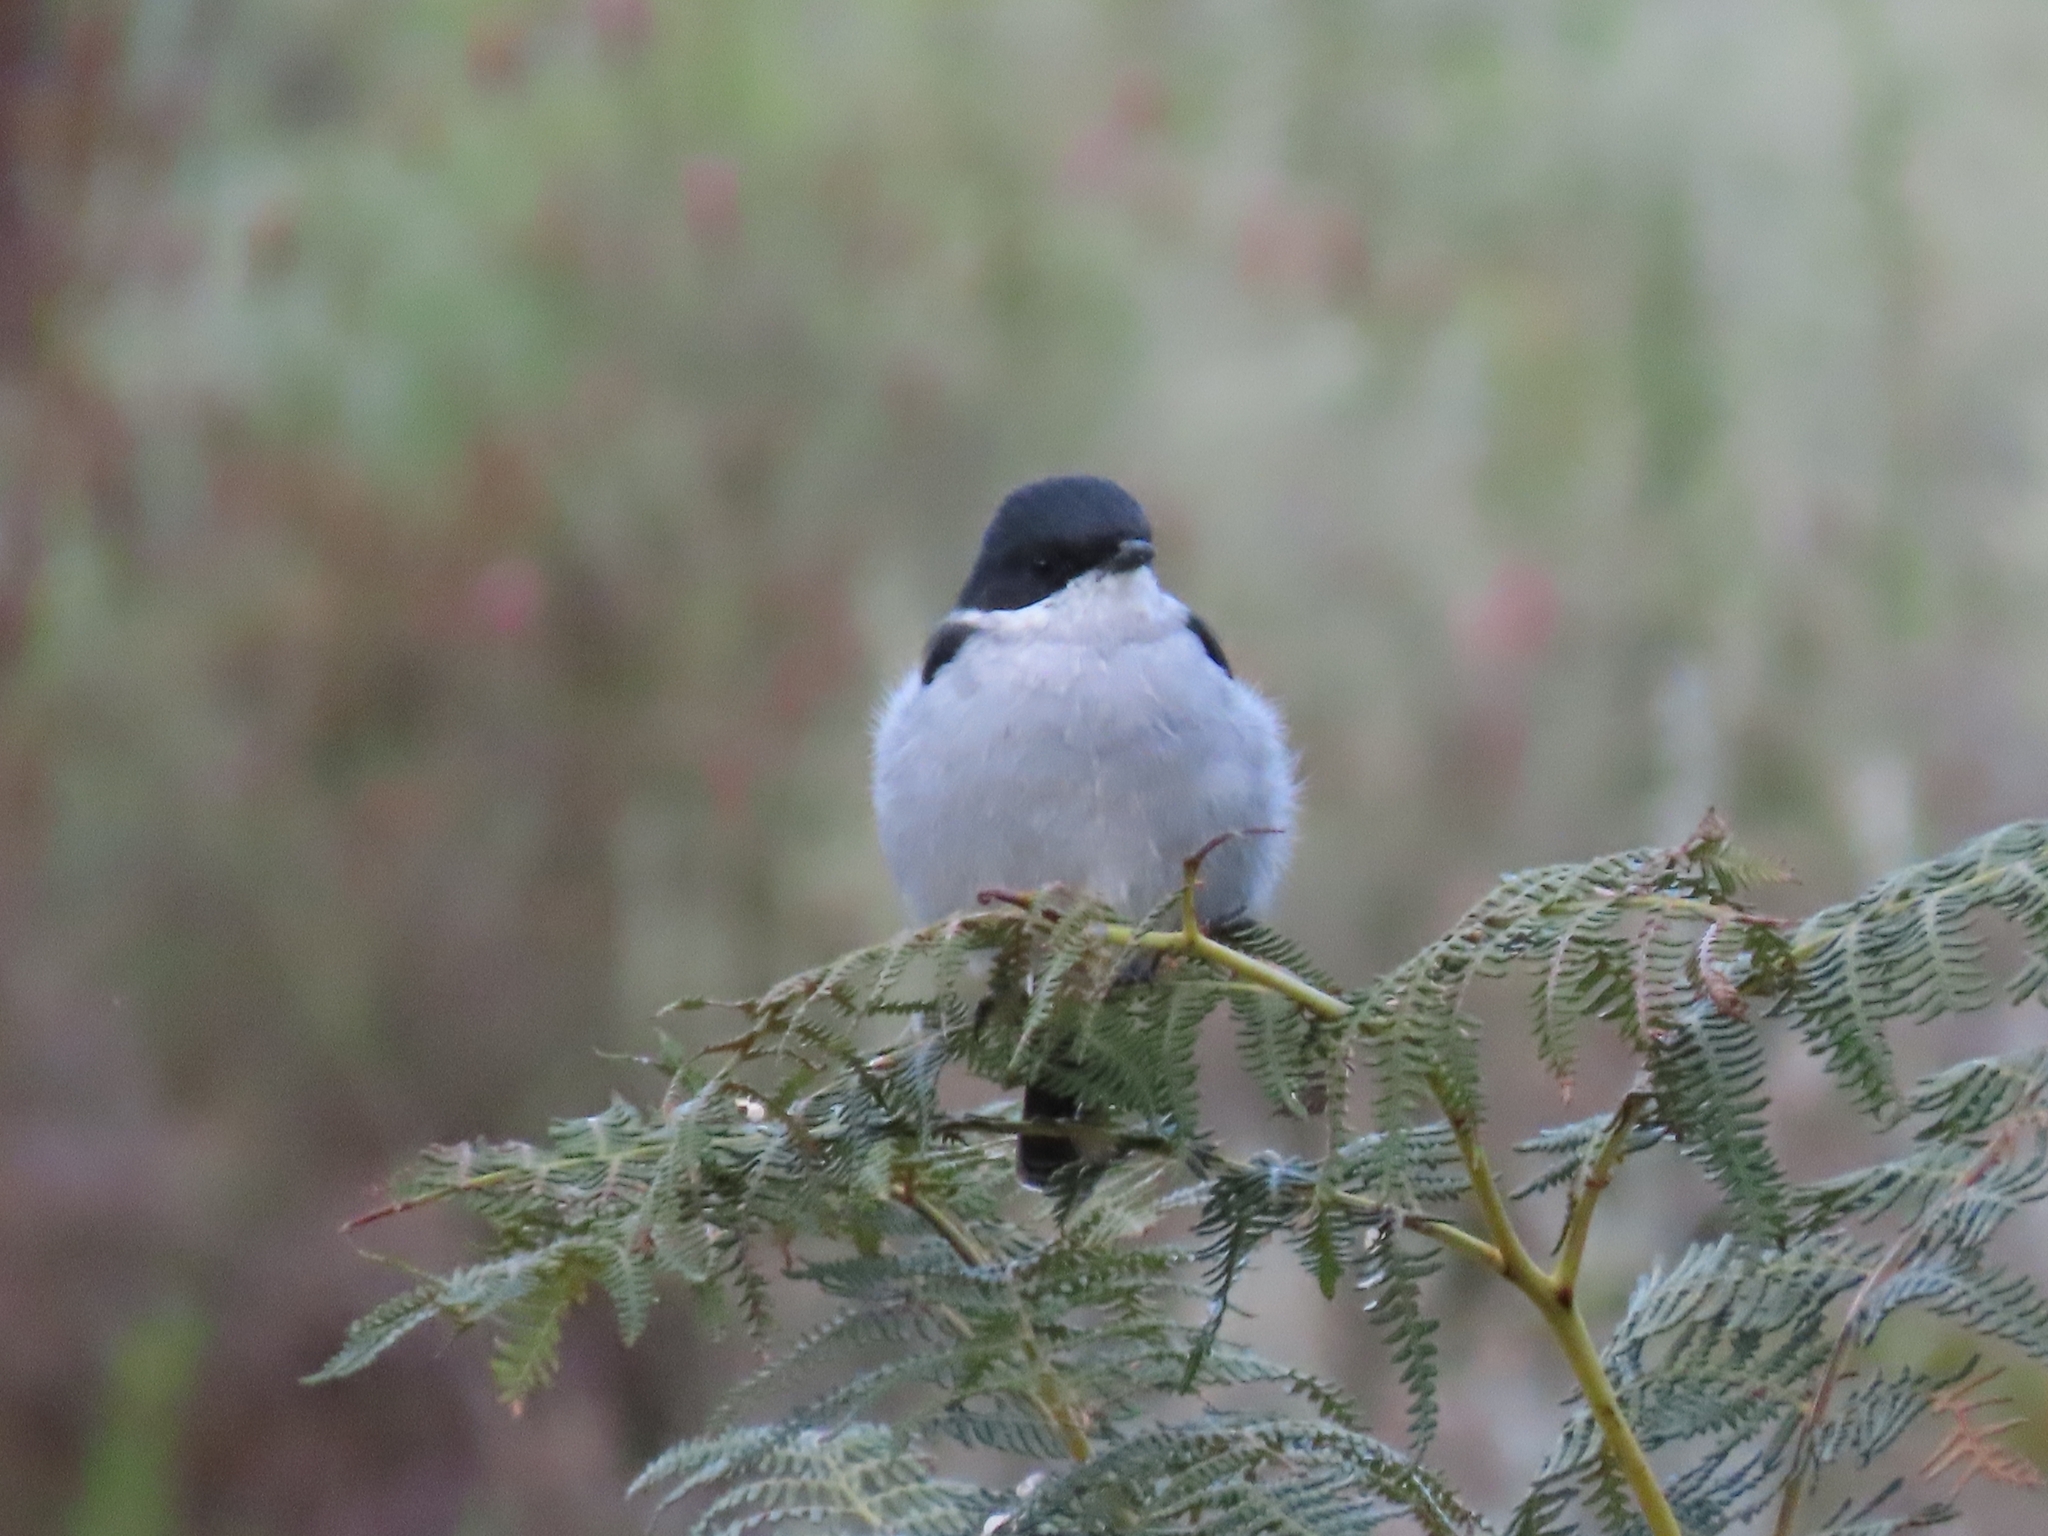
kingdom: Animalia
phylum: Chordata
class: Aves
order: Passeriformes
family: Muscicapidae
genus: Sigelus
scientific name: Sigelus silens
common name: Fiscal flycatcher
